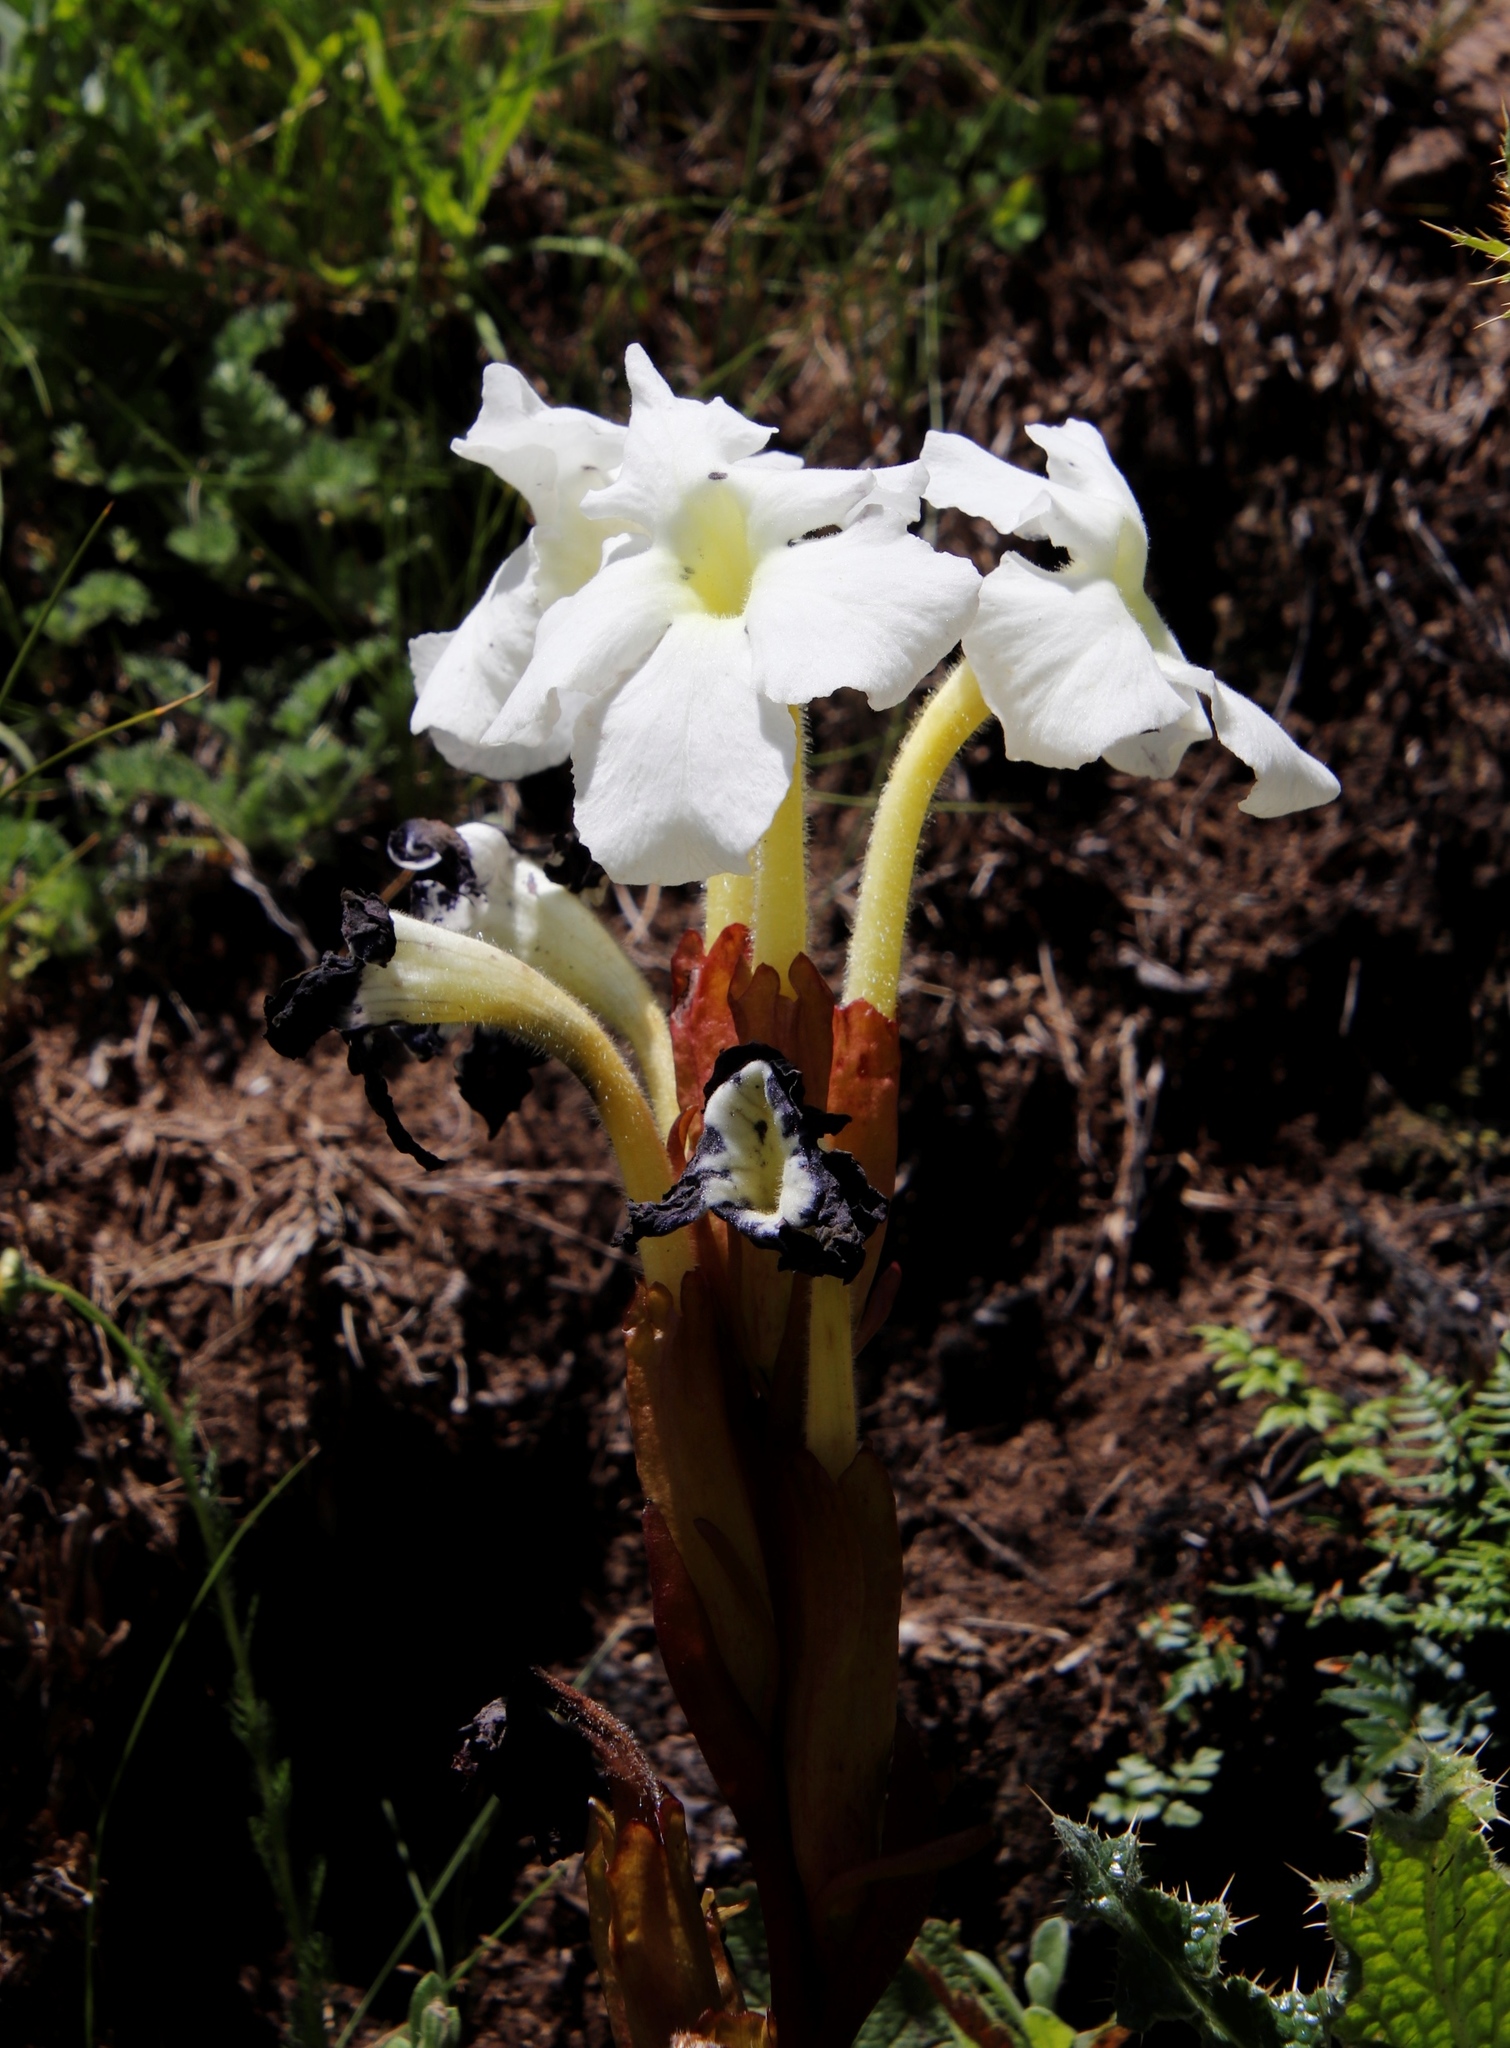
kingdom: Plantae
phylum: Tracheophyta
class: Magnoliopsida
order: Lamiales
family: Orobanchaceae
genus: Harveya
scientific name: Harveya speciosa
